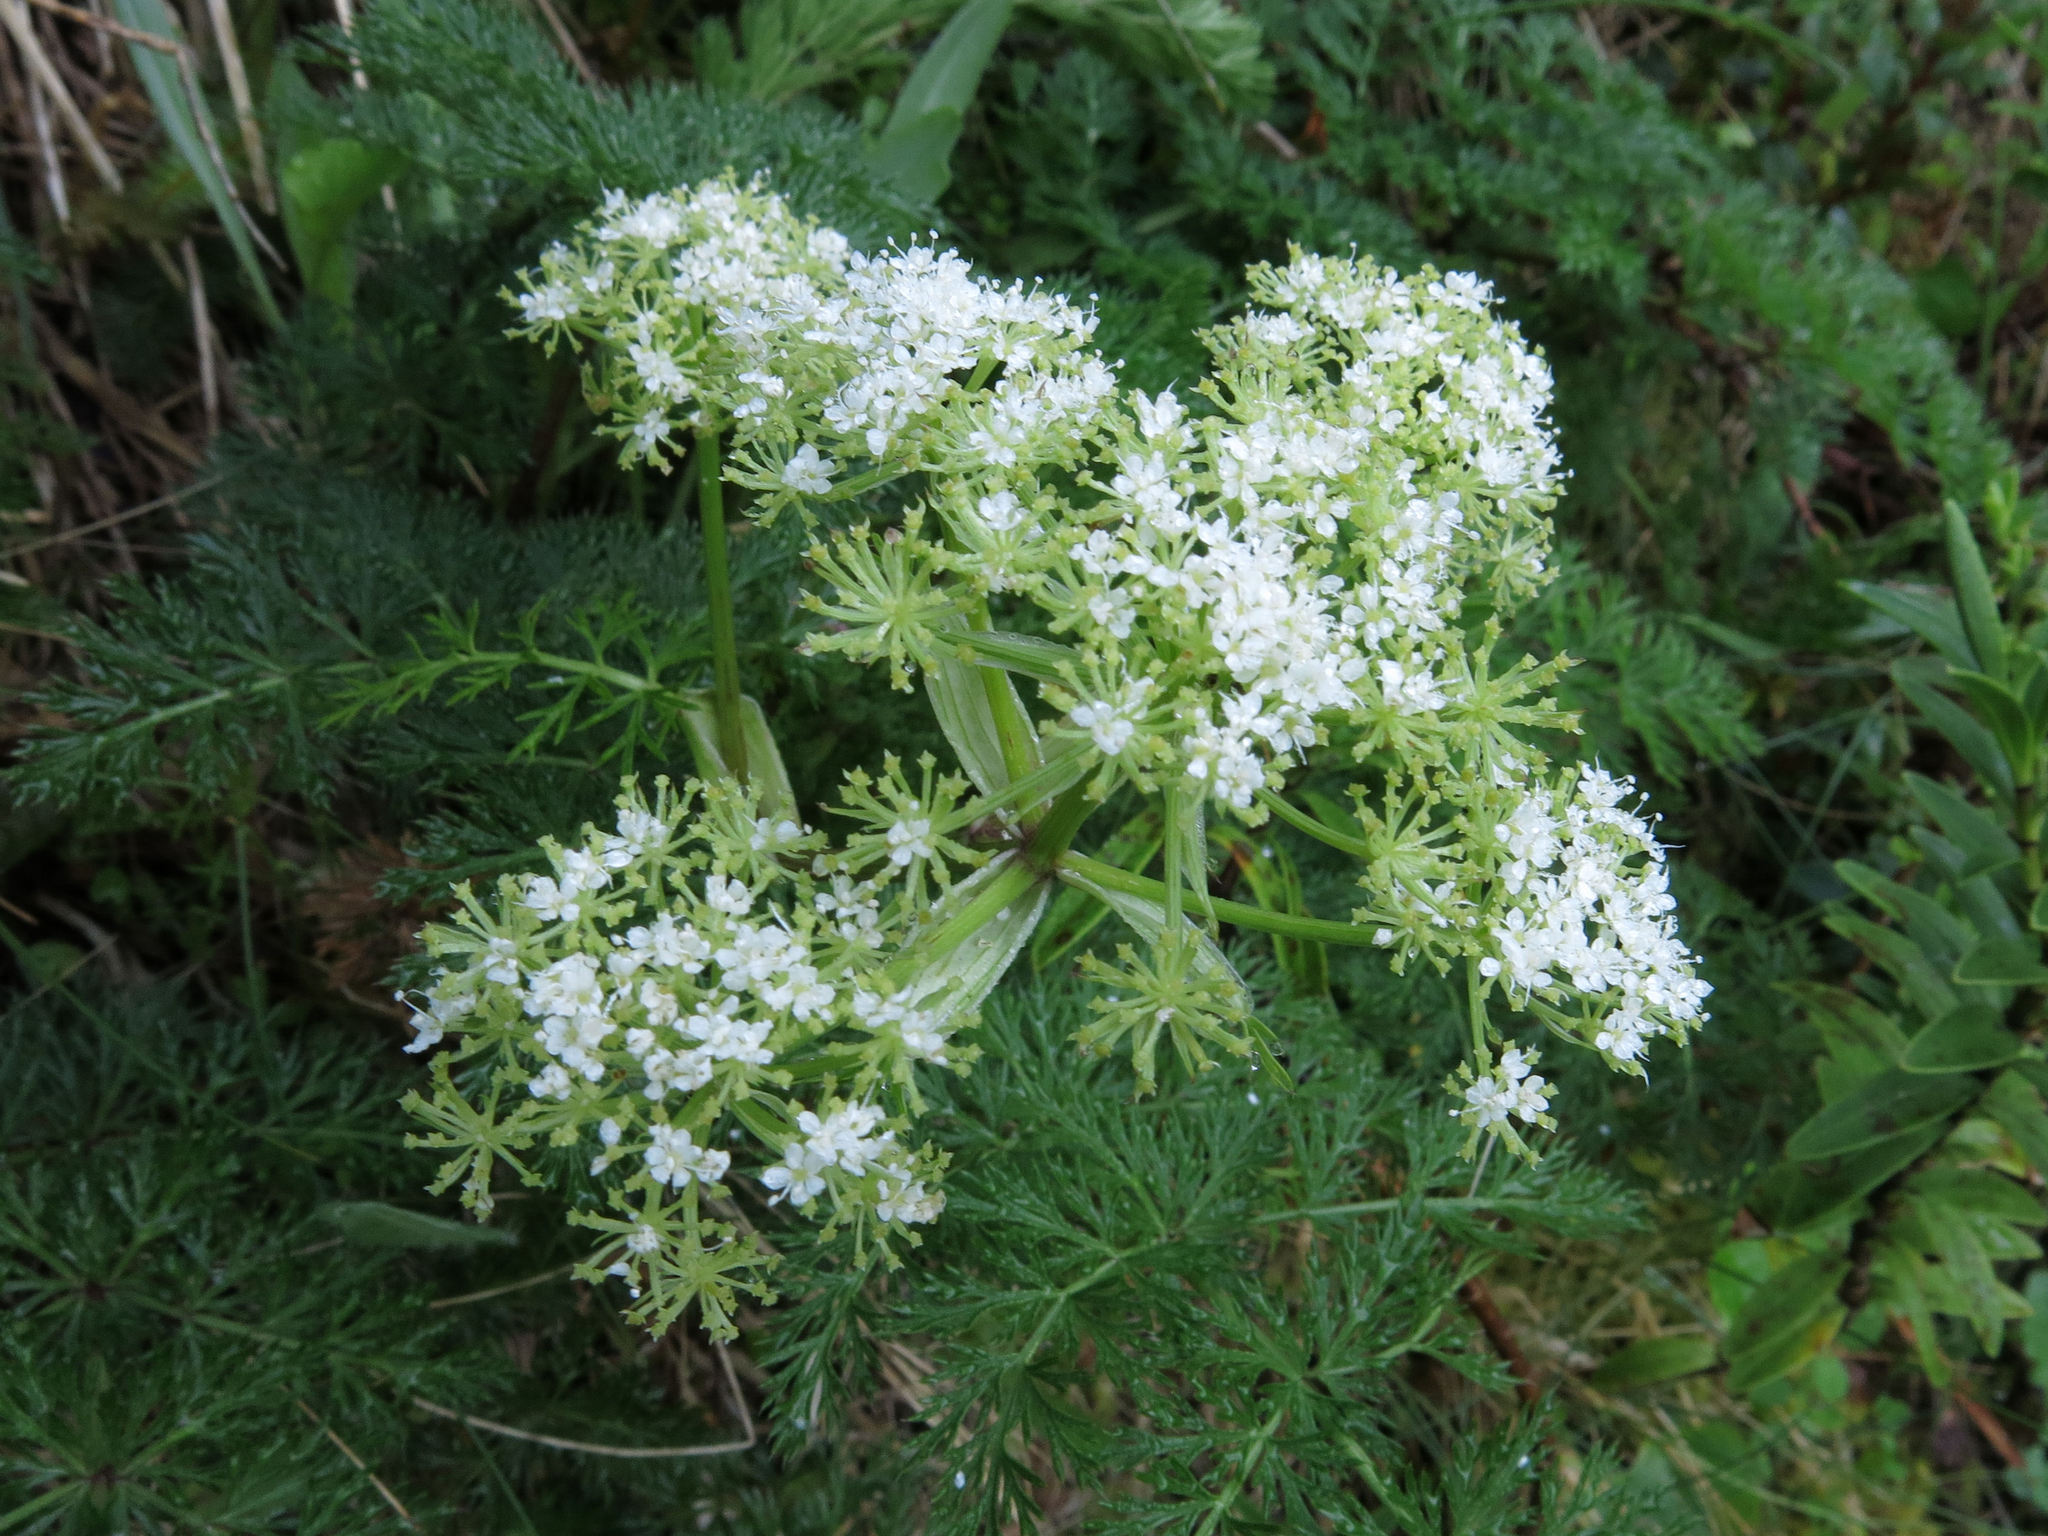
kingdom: Plantae
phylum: Tracheophyta
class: Magnoliopsida
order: Apiales
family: Apiaceae
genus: Anisotome
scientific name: Anisotome haastii
